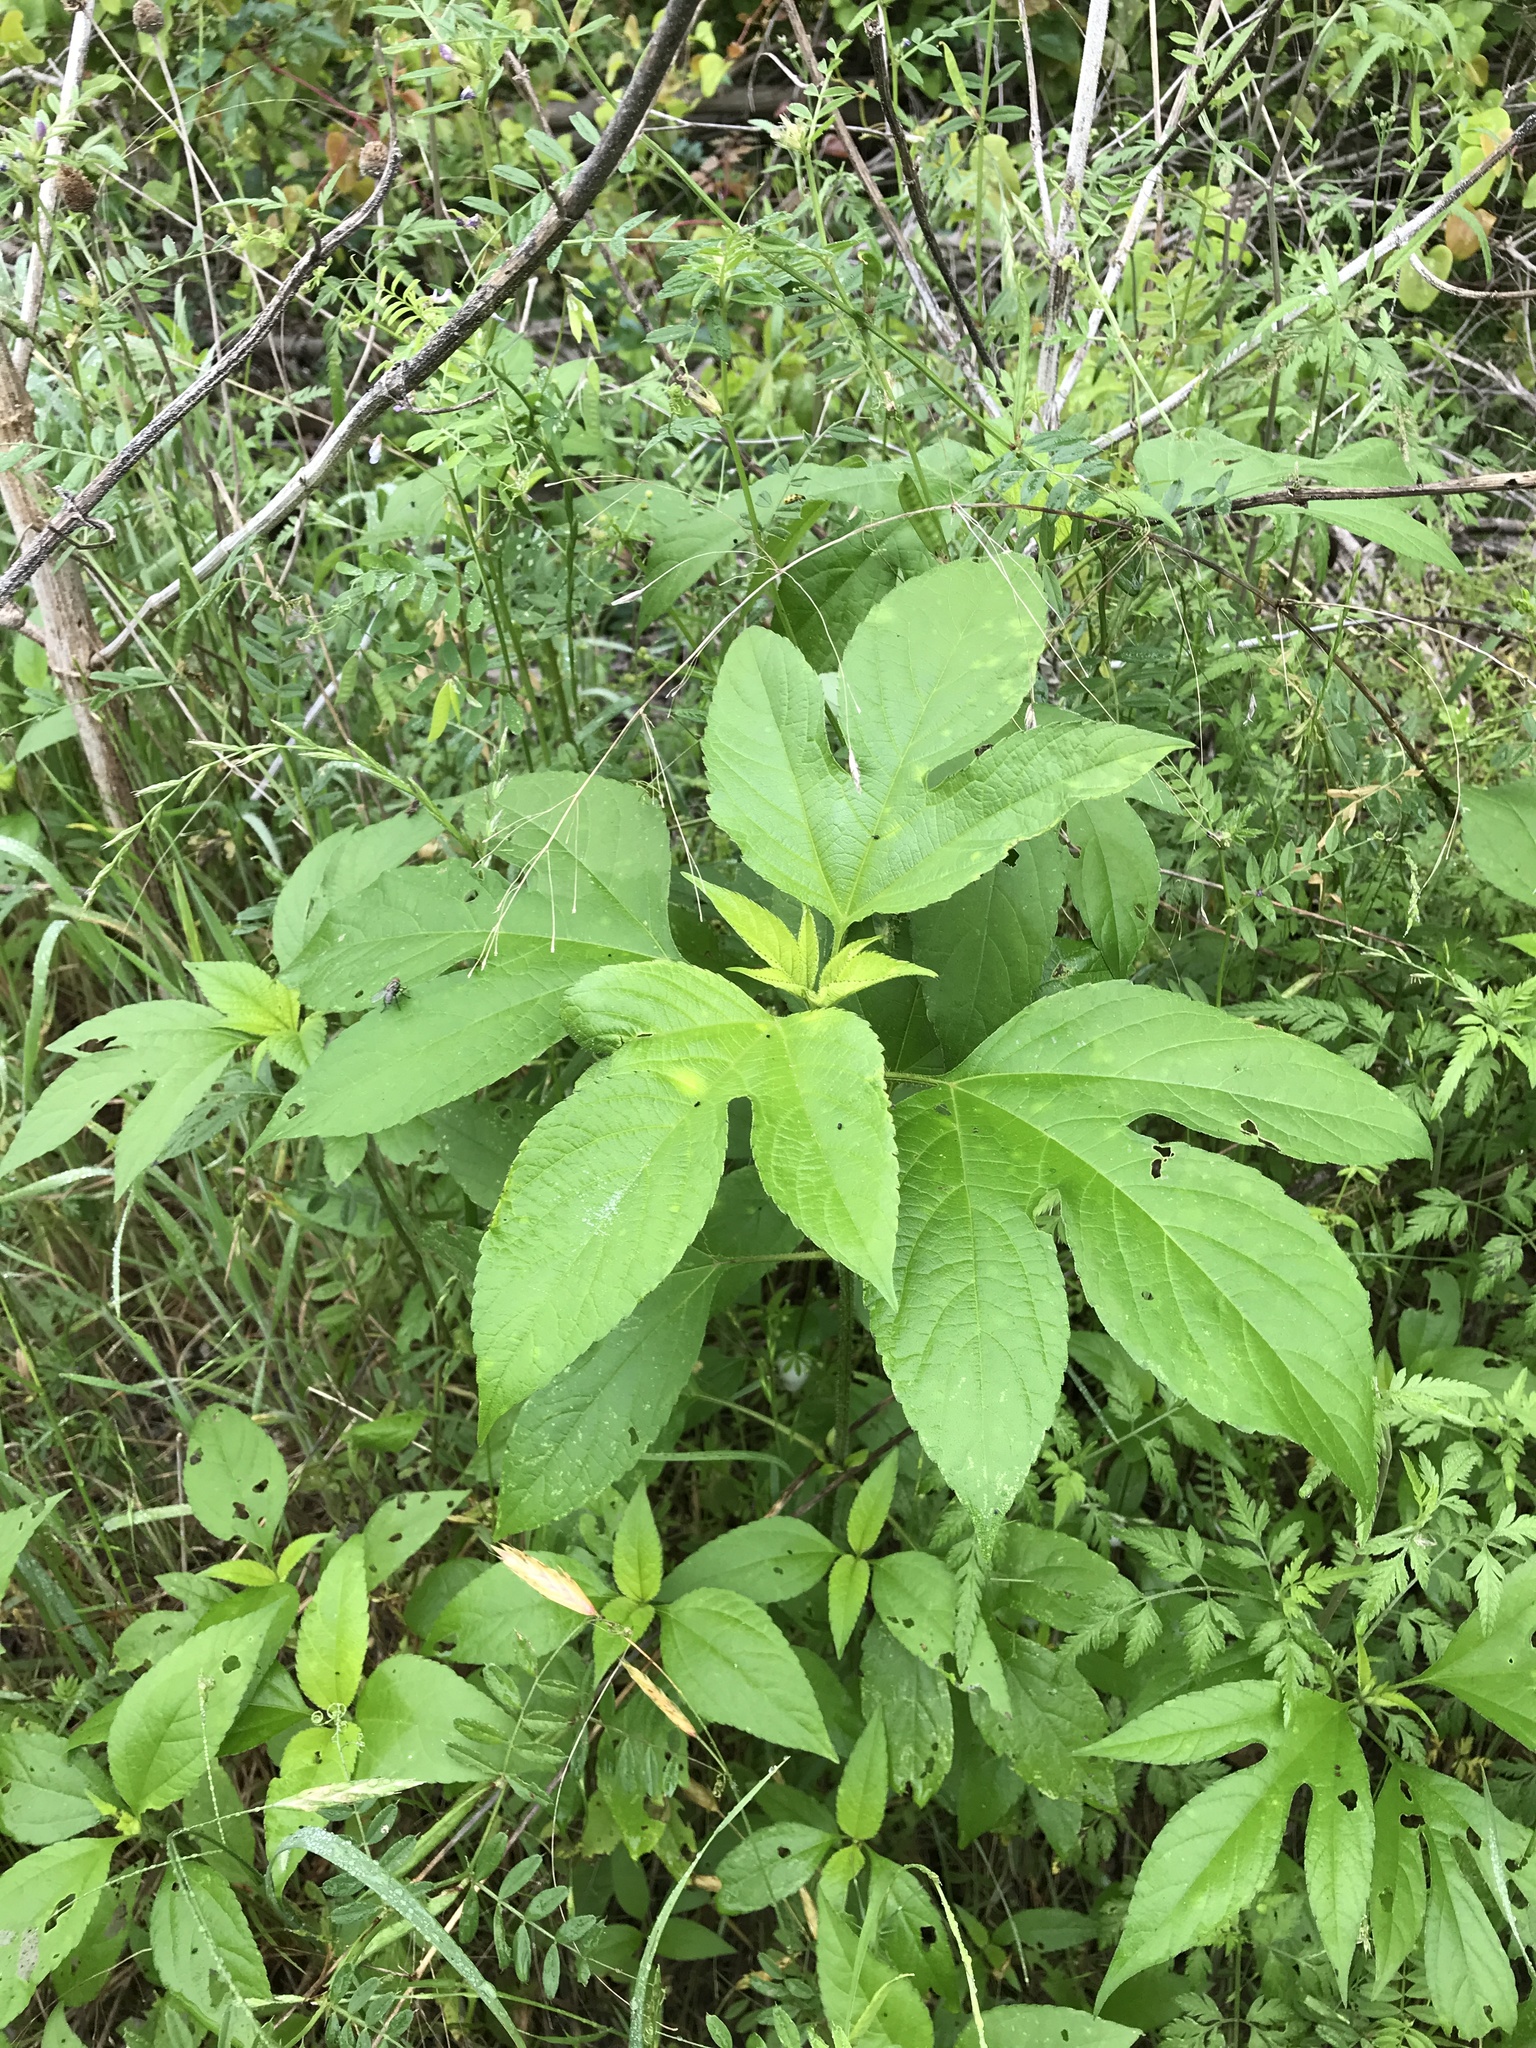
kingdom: Plantae
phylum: Tracheophyta
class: Magnoliopsida
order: Asterales
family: Asteraceae
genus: Ambrosia
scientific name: Ambrosia trifida
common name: Giant ragweed
